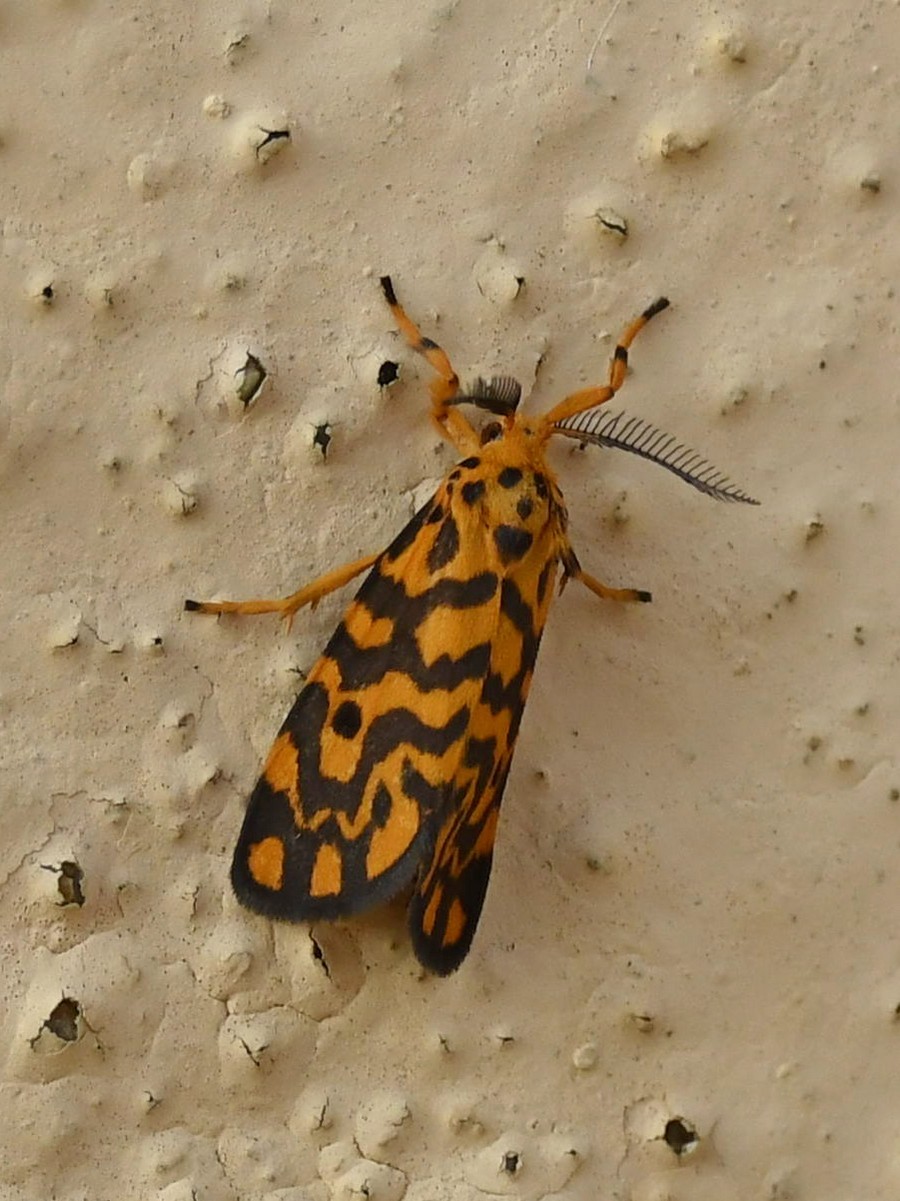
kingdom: Animalia
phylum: Arthropoda
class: Insecta
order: Lepidoptera
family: Erebidae
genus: Nepita
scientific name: Nepita conferta
